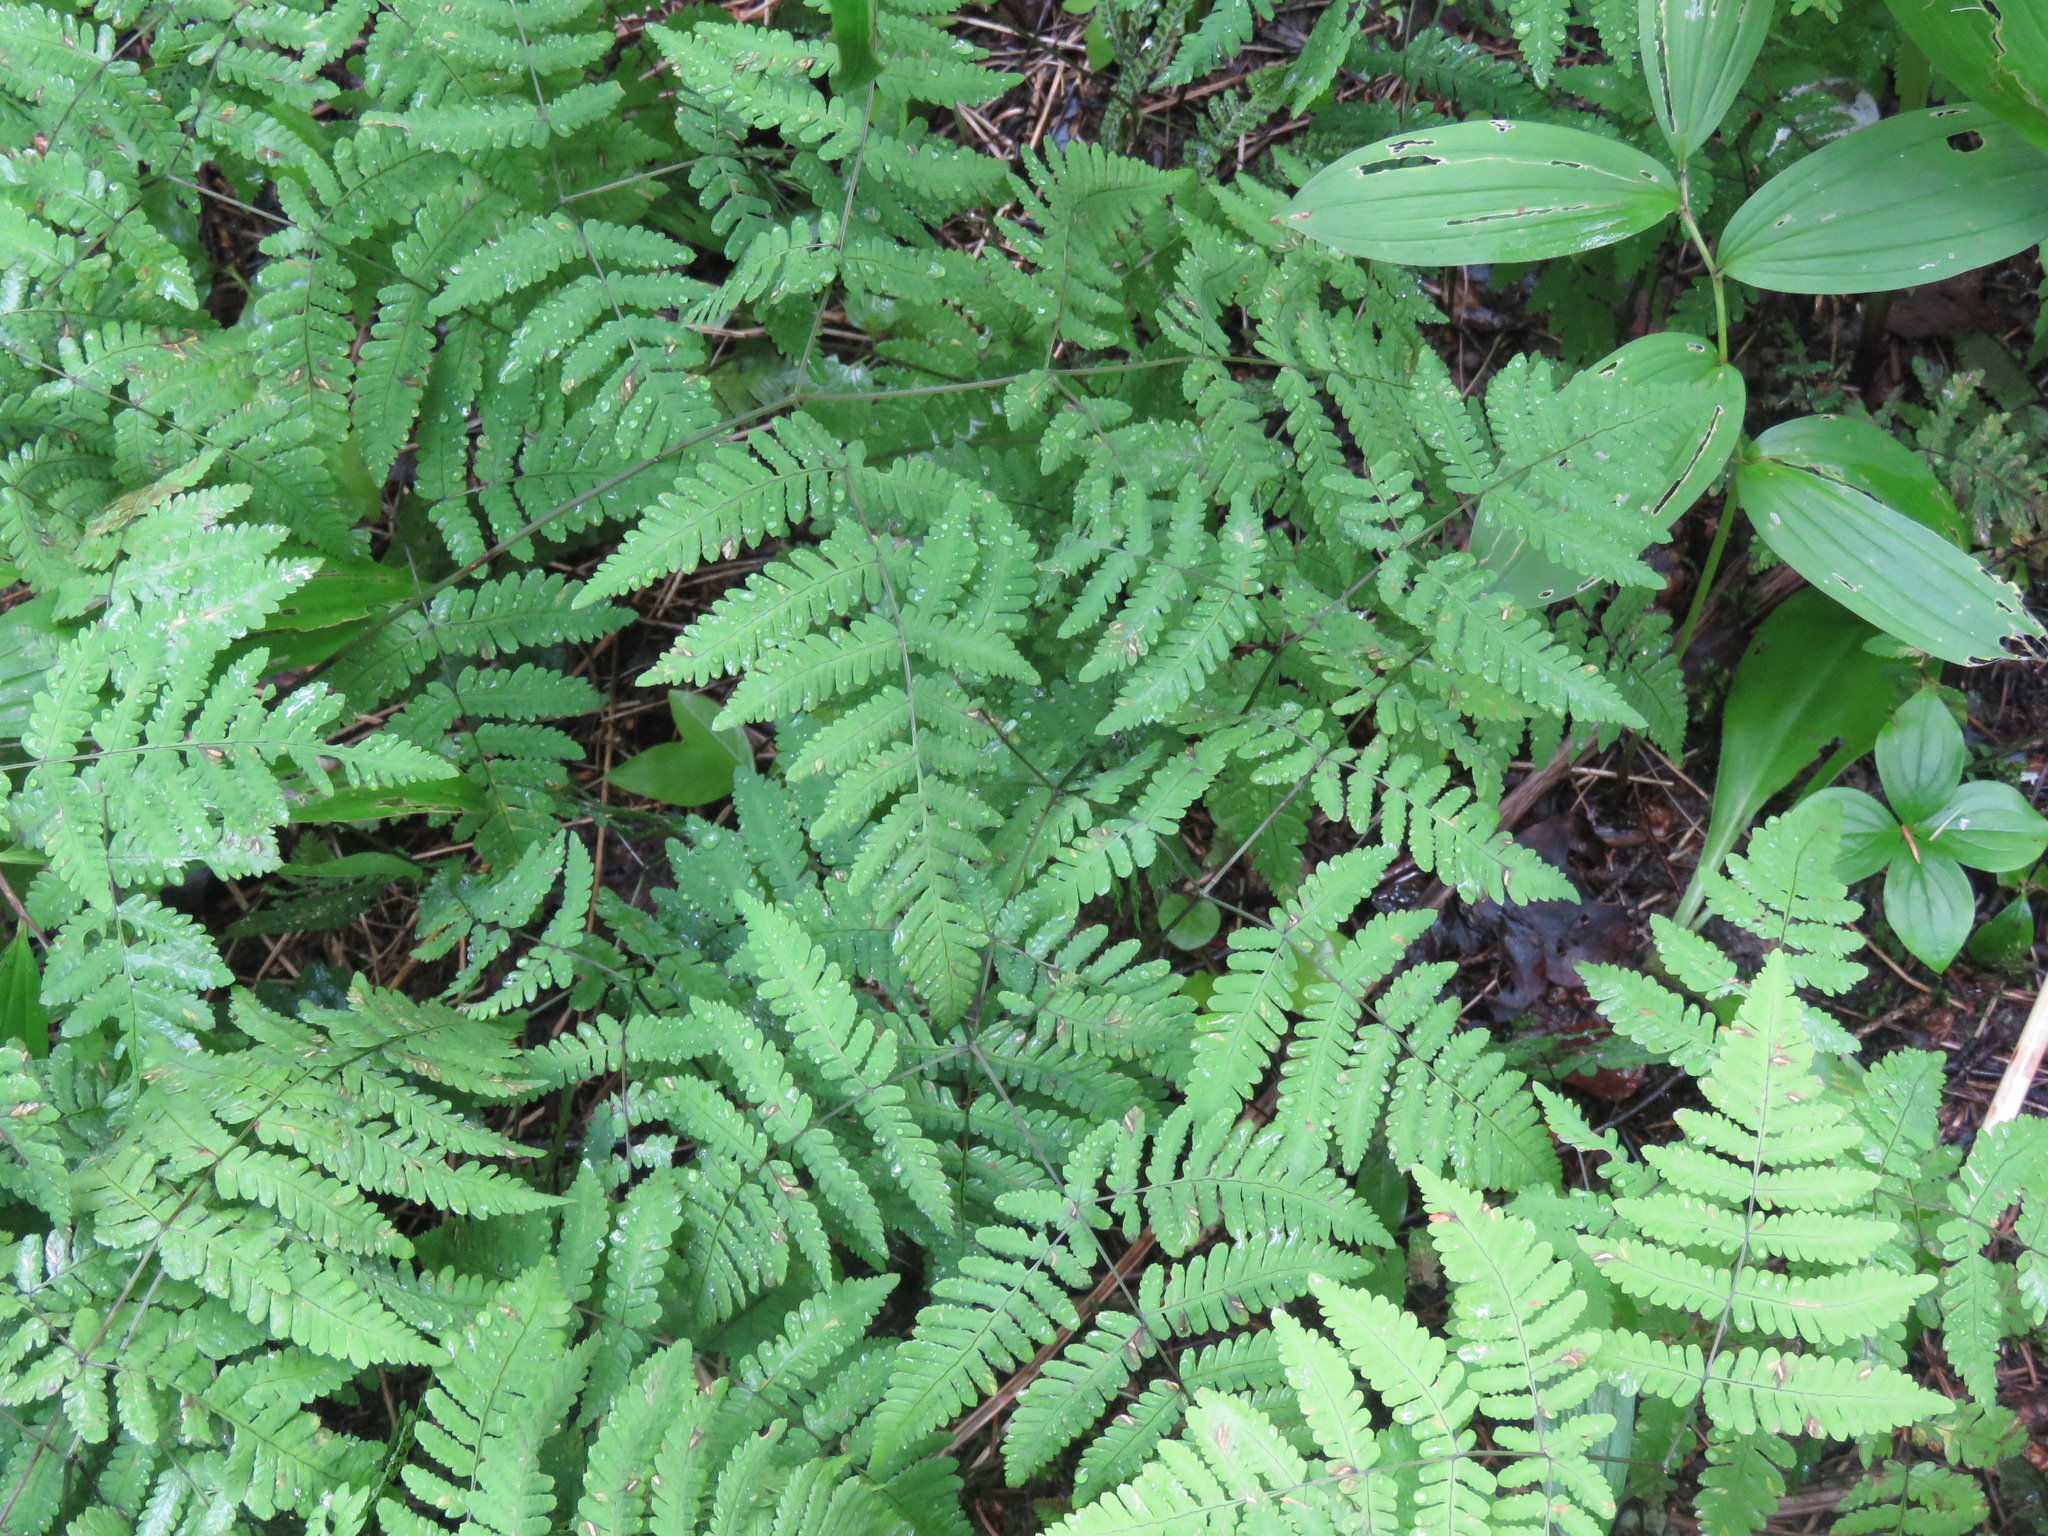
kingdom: Plantae
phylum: Tracheophyta
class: Polypodiopsida
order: Polypodiales
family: Cystopteridaceae
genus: Gymnocarpium
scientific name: Gymnocarpium dryopteris
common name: Oak fern
